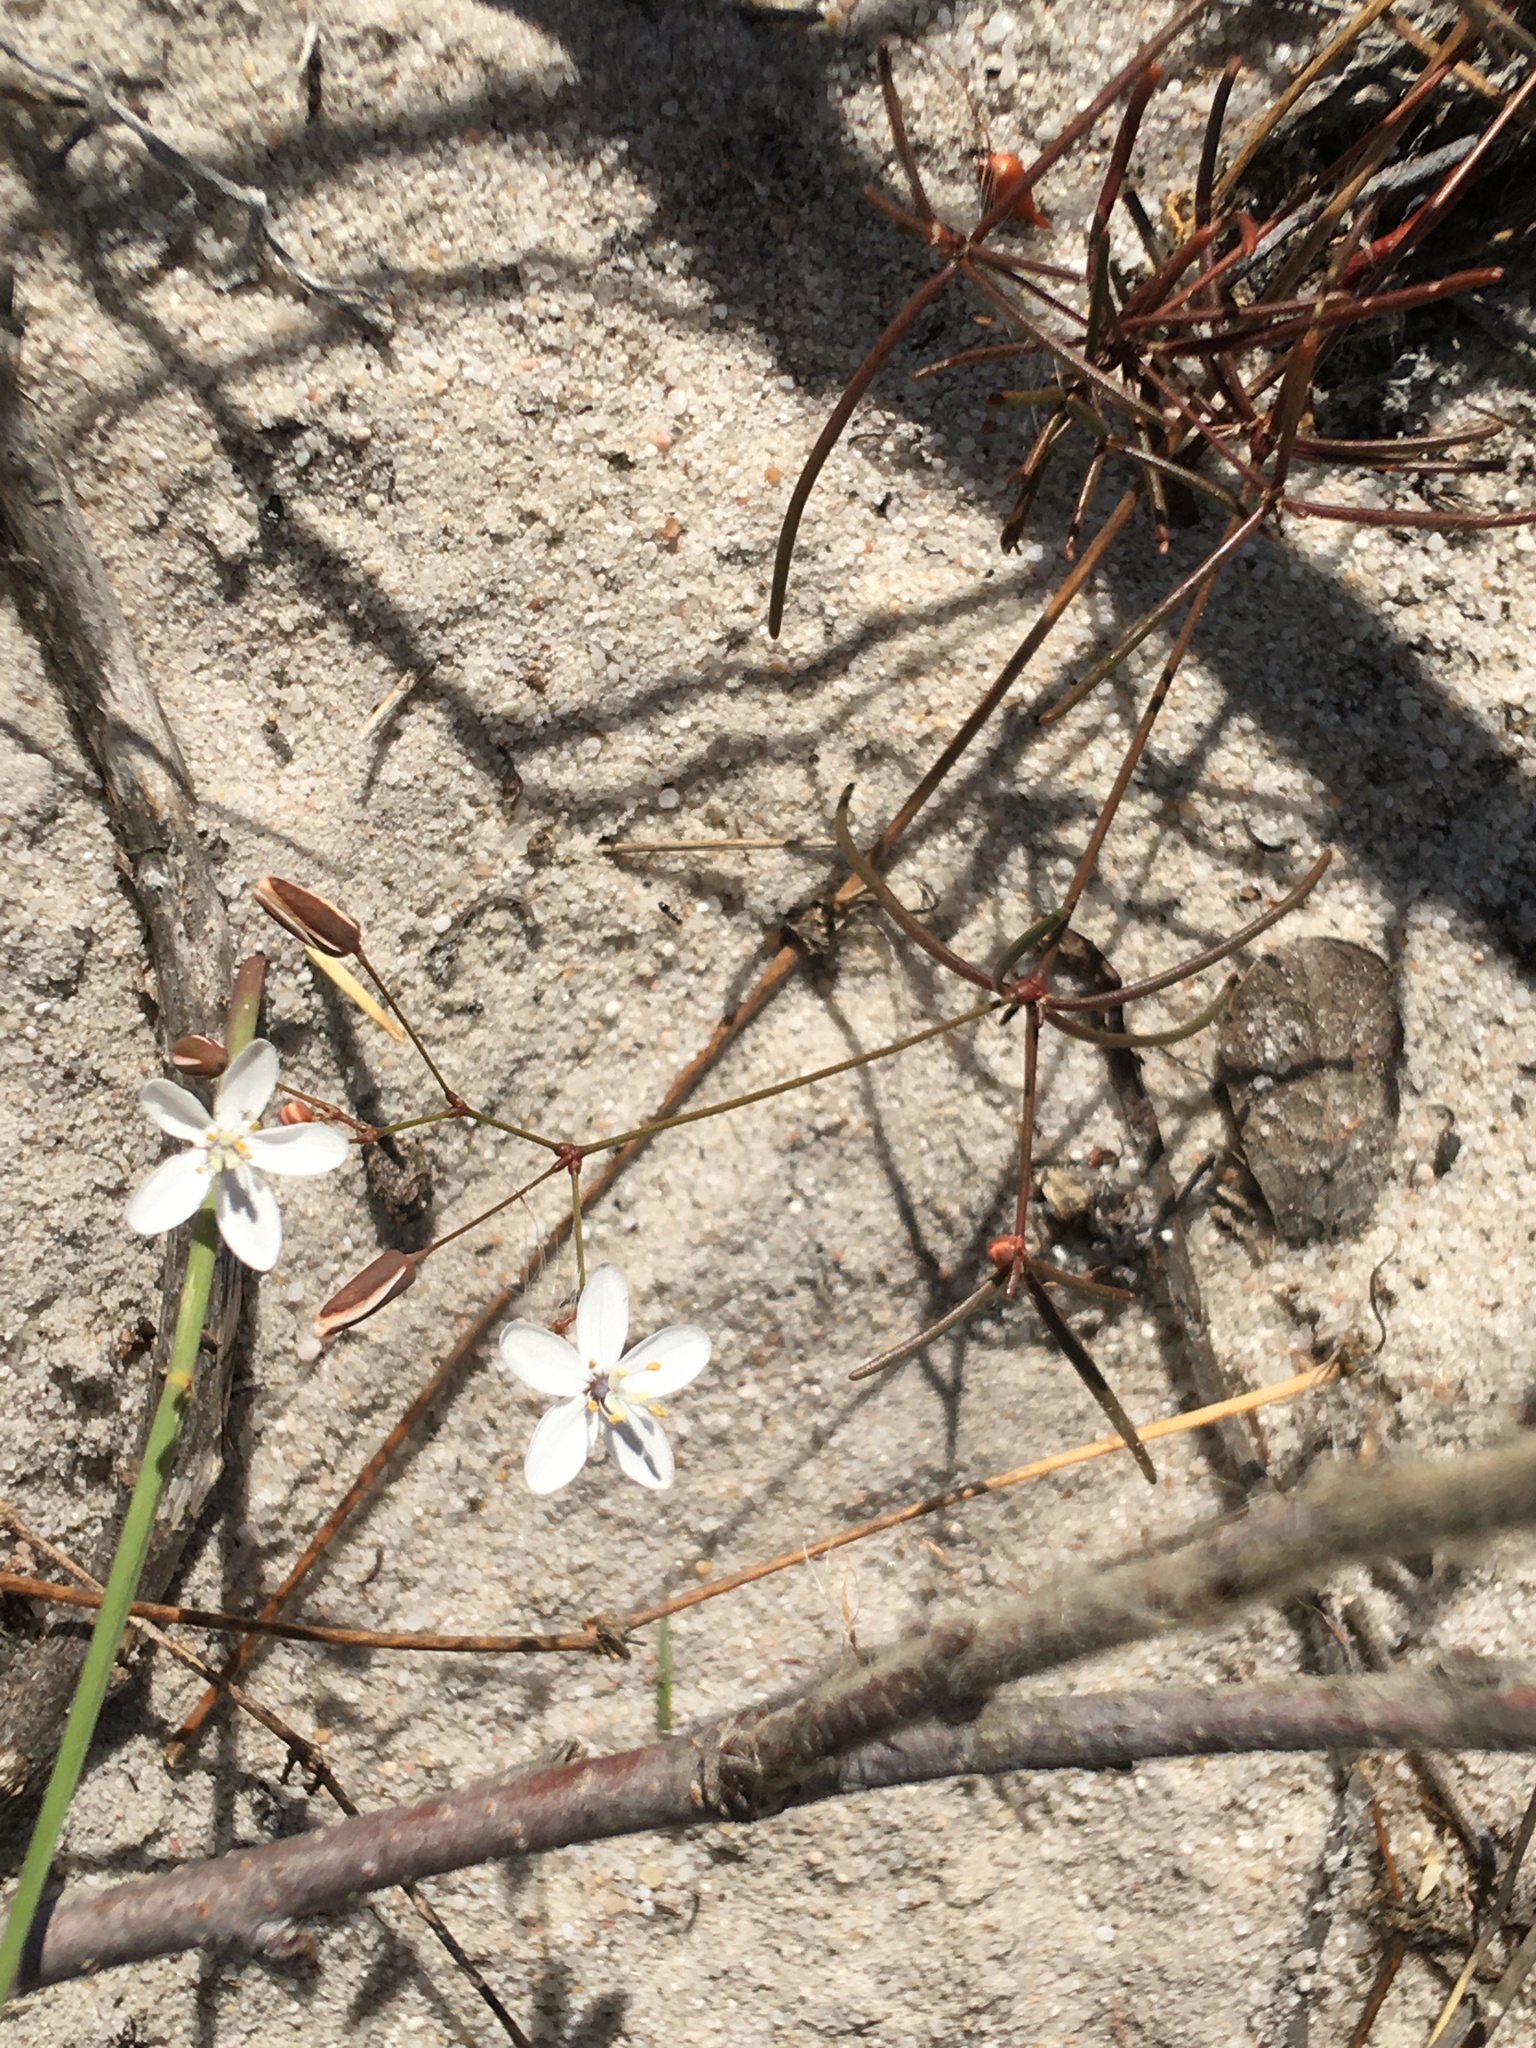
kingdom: Plantae
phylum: Tracheophyta
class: Magnoliopsida
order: Caryophyllales
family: Molluginaceae
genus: Pharnaceum
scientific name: Pharnaceum lineare
